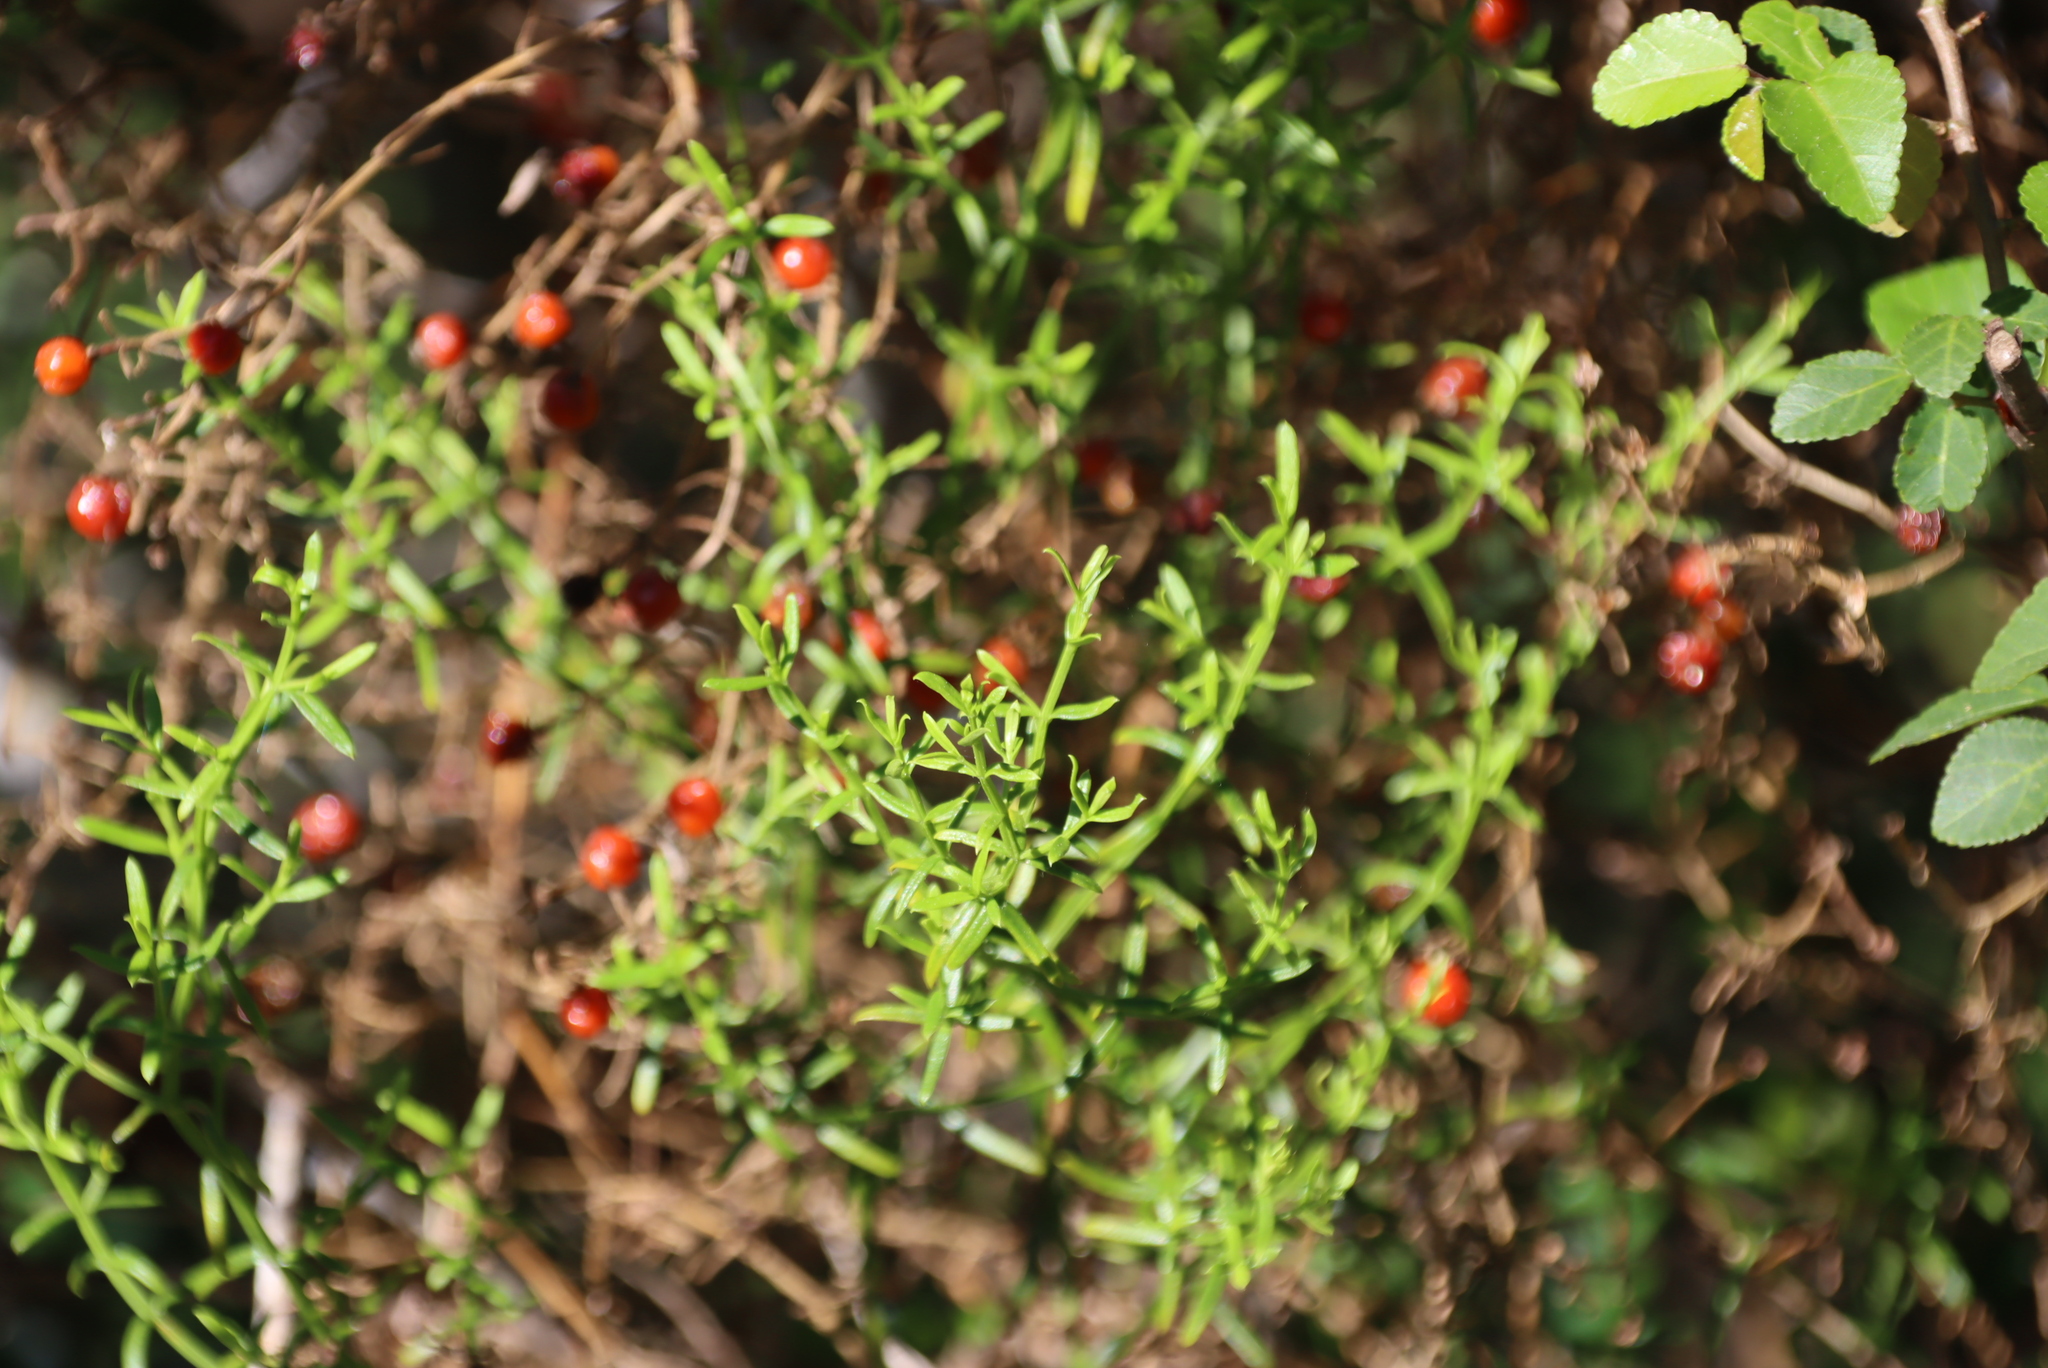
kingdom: Plantae
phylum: Tracheophyta
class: Magnoliopsida
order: Gentianales
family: Gentianaceae
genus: Chironia
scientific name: Chironia baccifera
